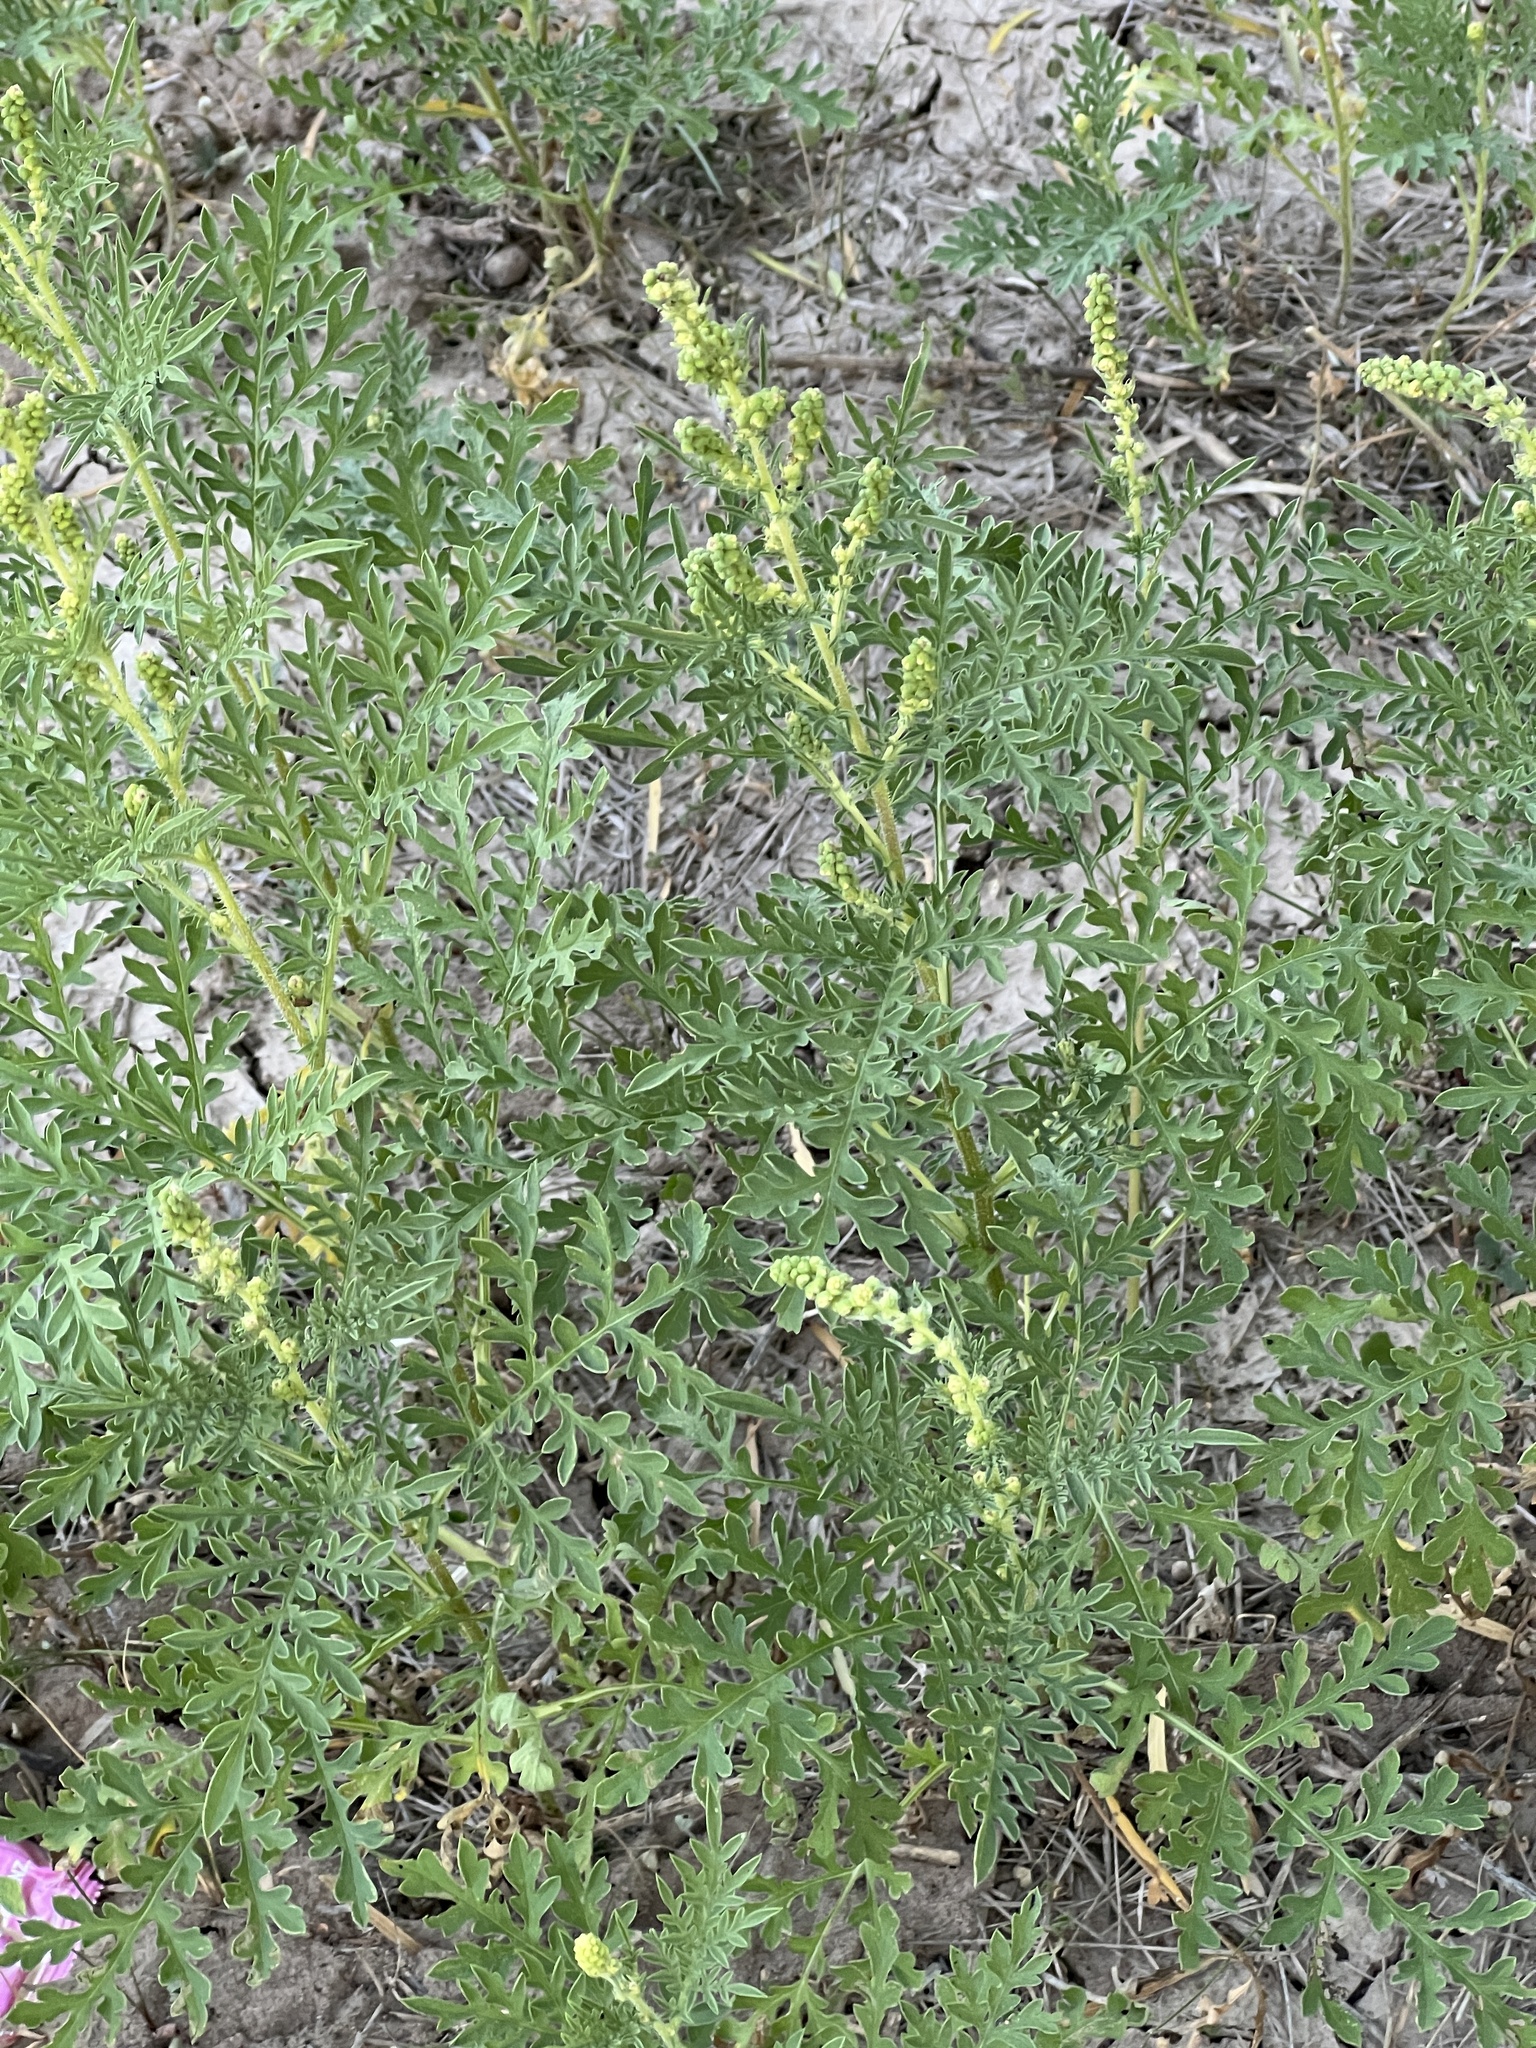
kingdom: Plantae
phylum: Tracheophyta
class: Magnoliopsida
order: Asterales
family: Asteraceae
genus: Ambrosia
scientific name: Ambrosia psilostachya
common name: Perennial ragweed
